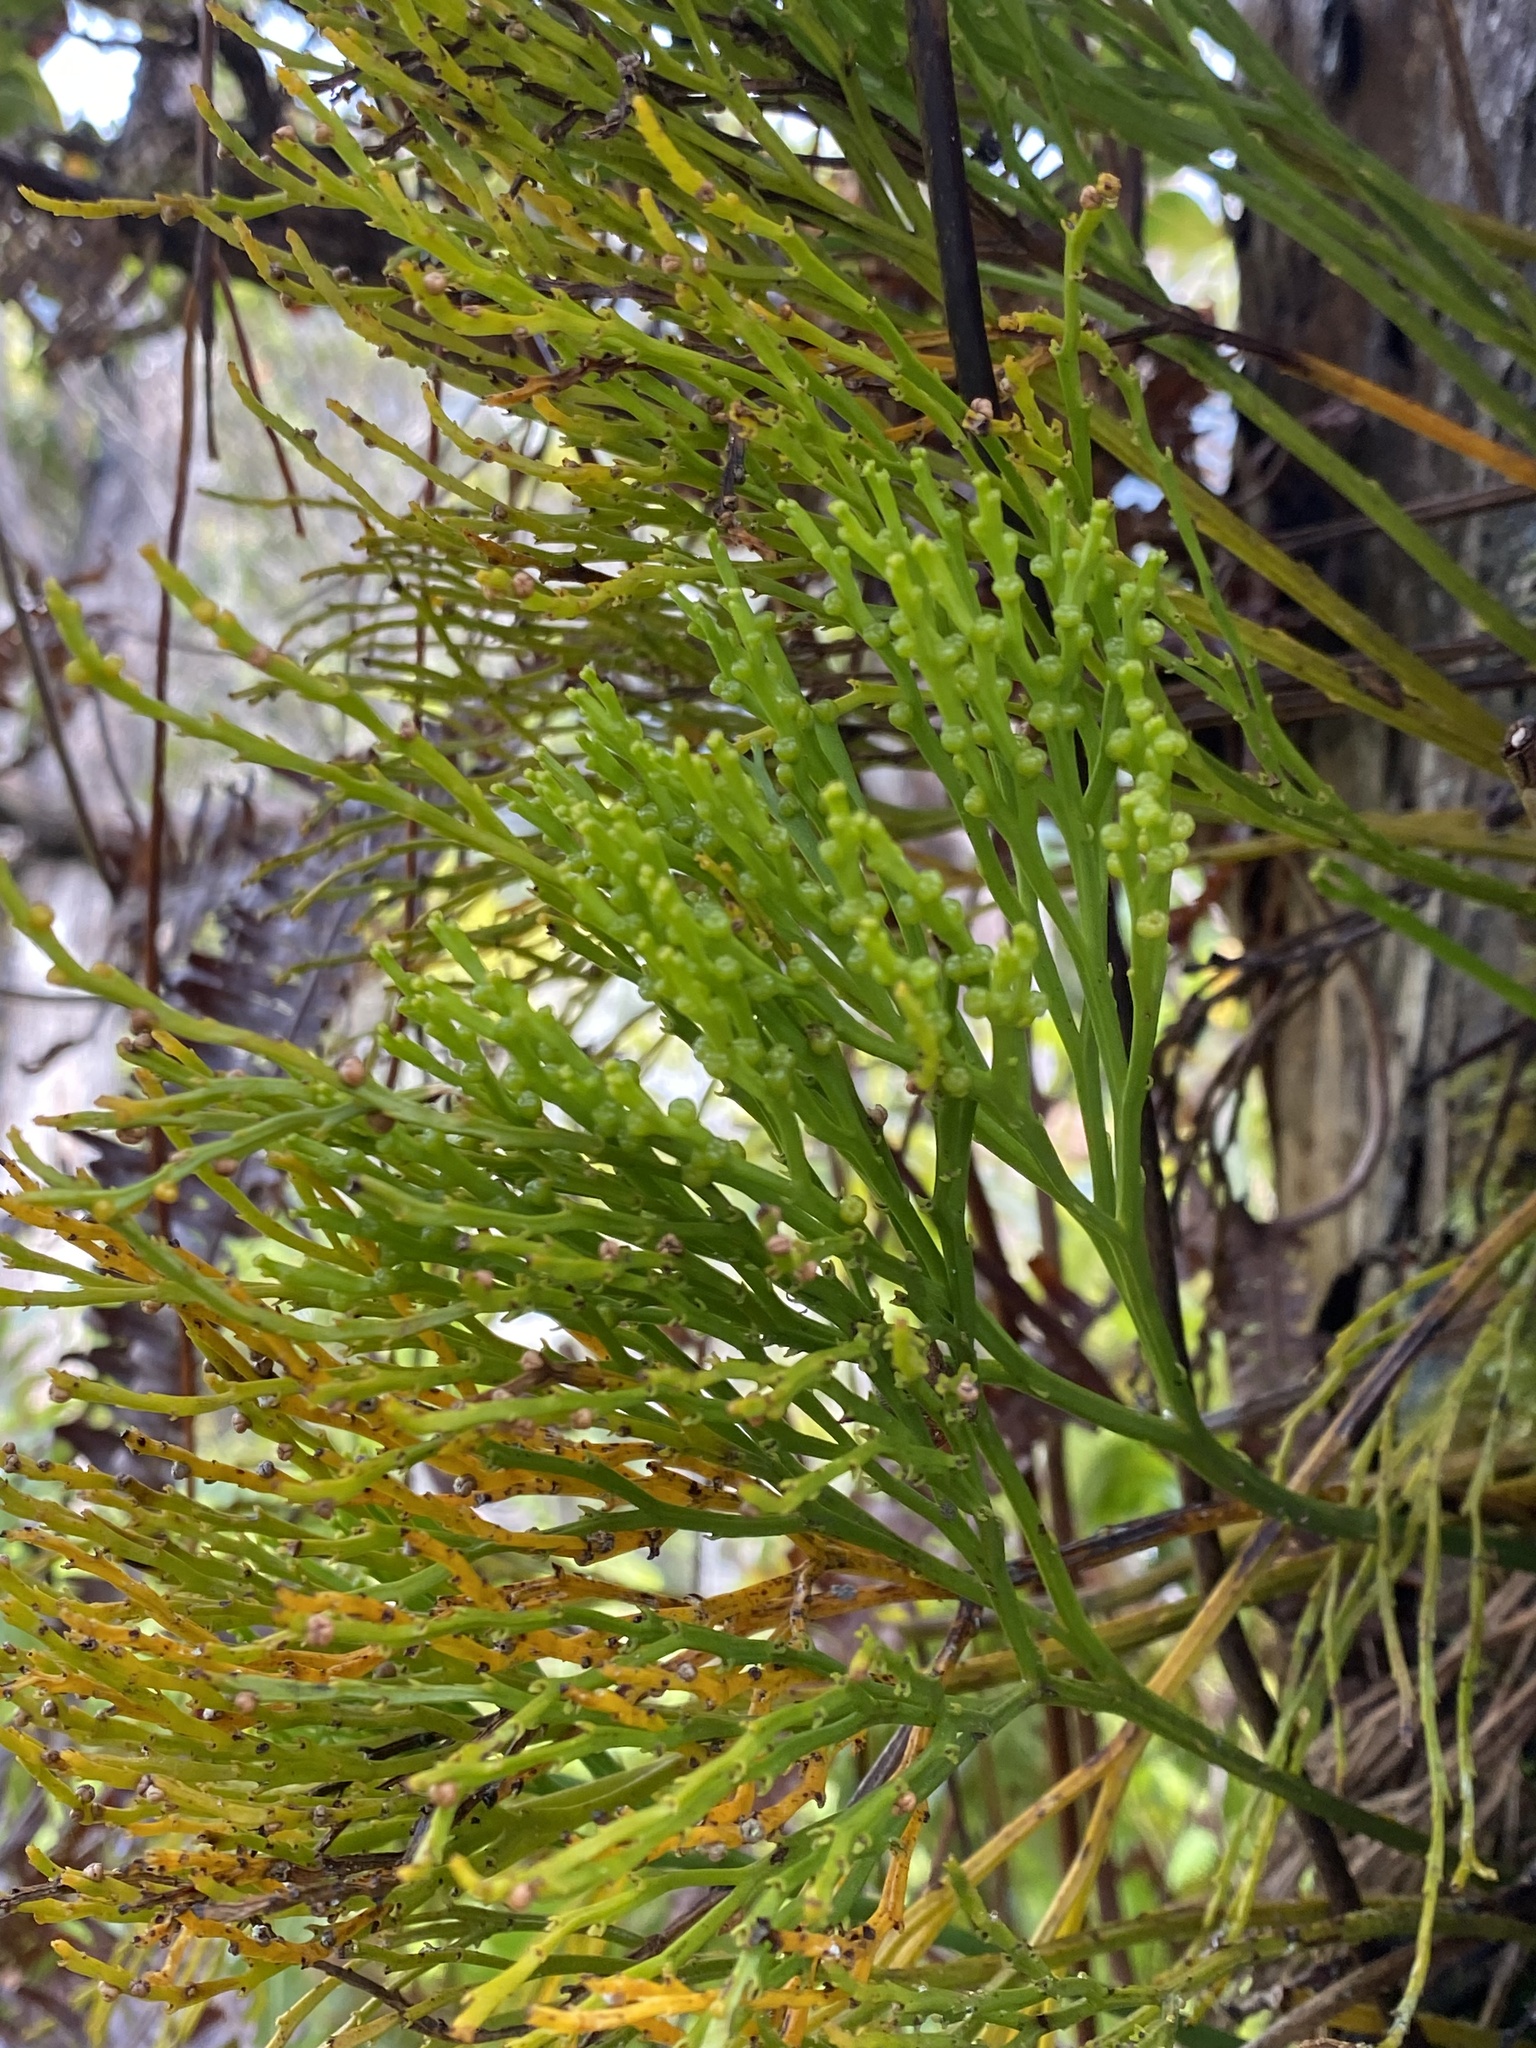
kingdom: Plantae
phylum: Tracheophyta
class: Polypodiopsida
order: Psilotales
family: Psilotaceae
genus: Psilotum
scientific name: Psilotum nudum
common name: Skeleton fork fern
